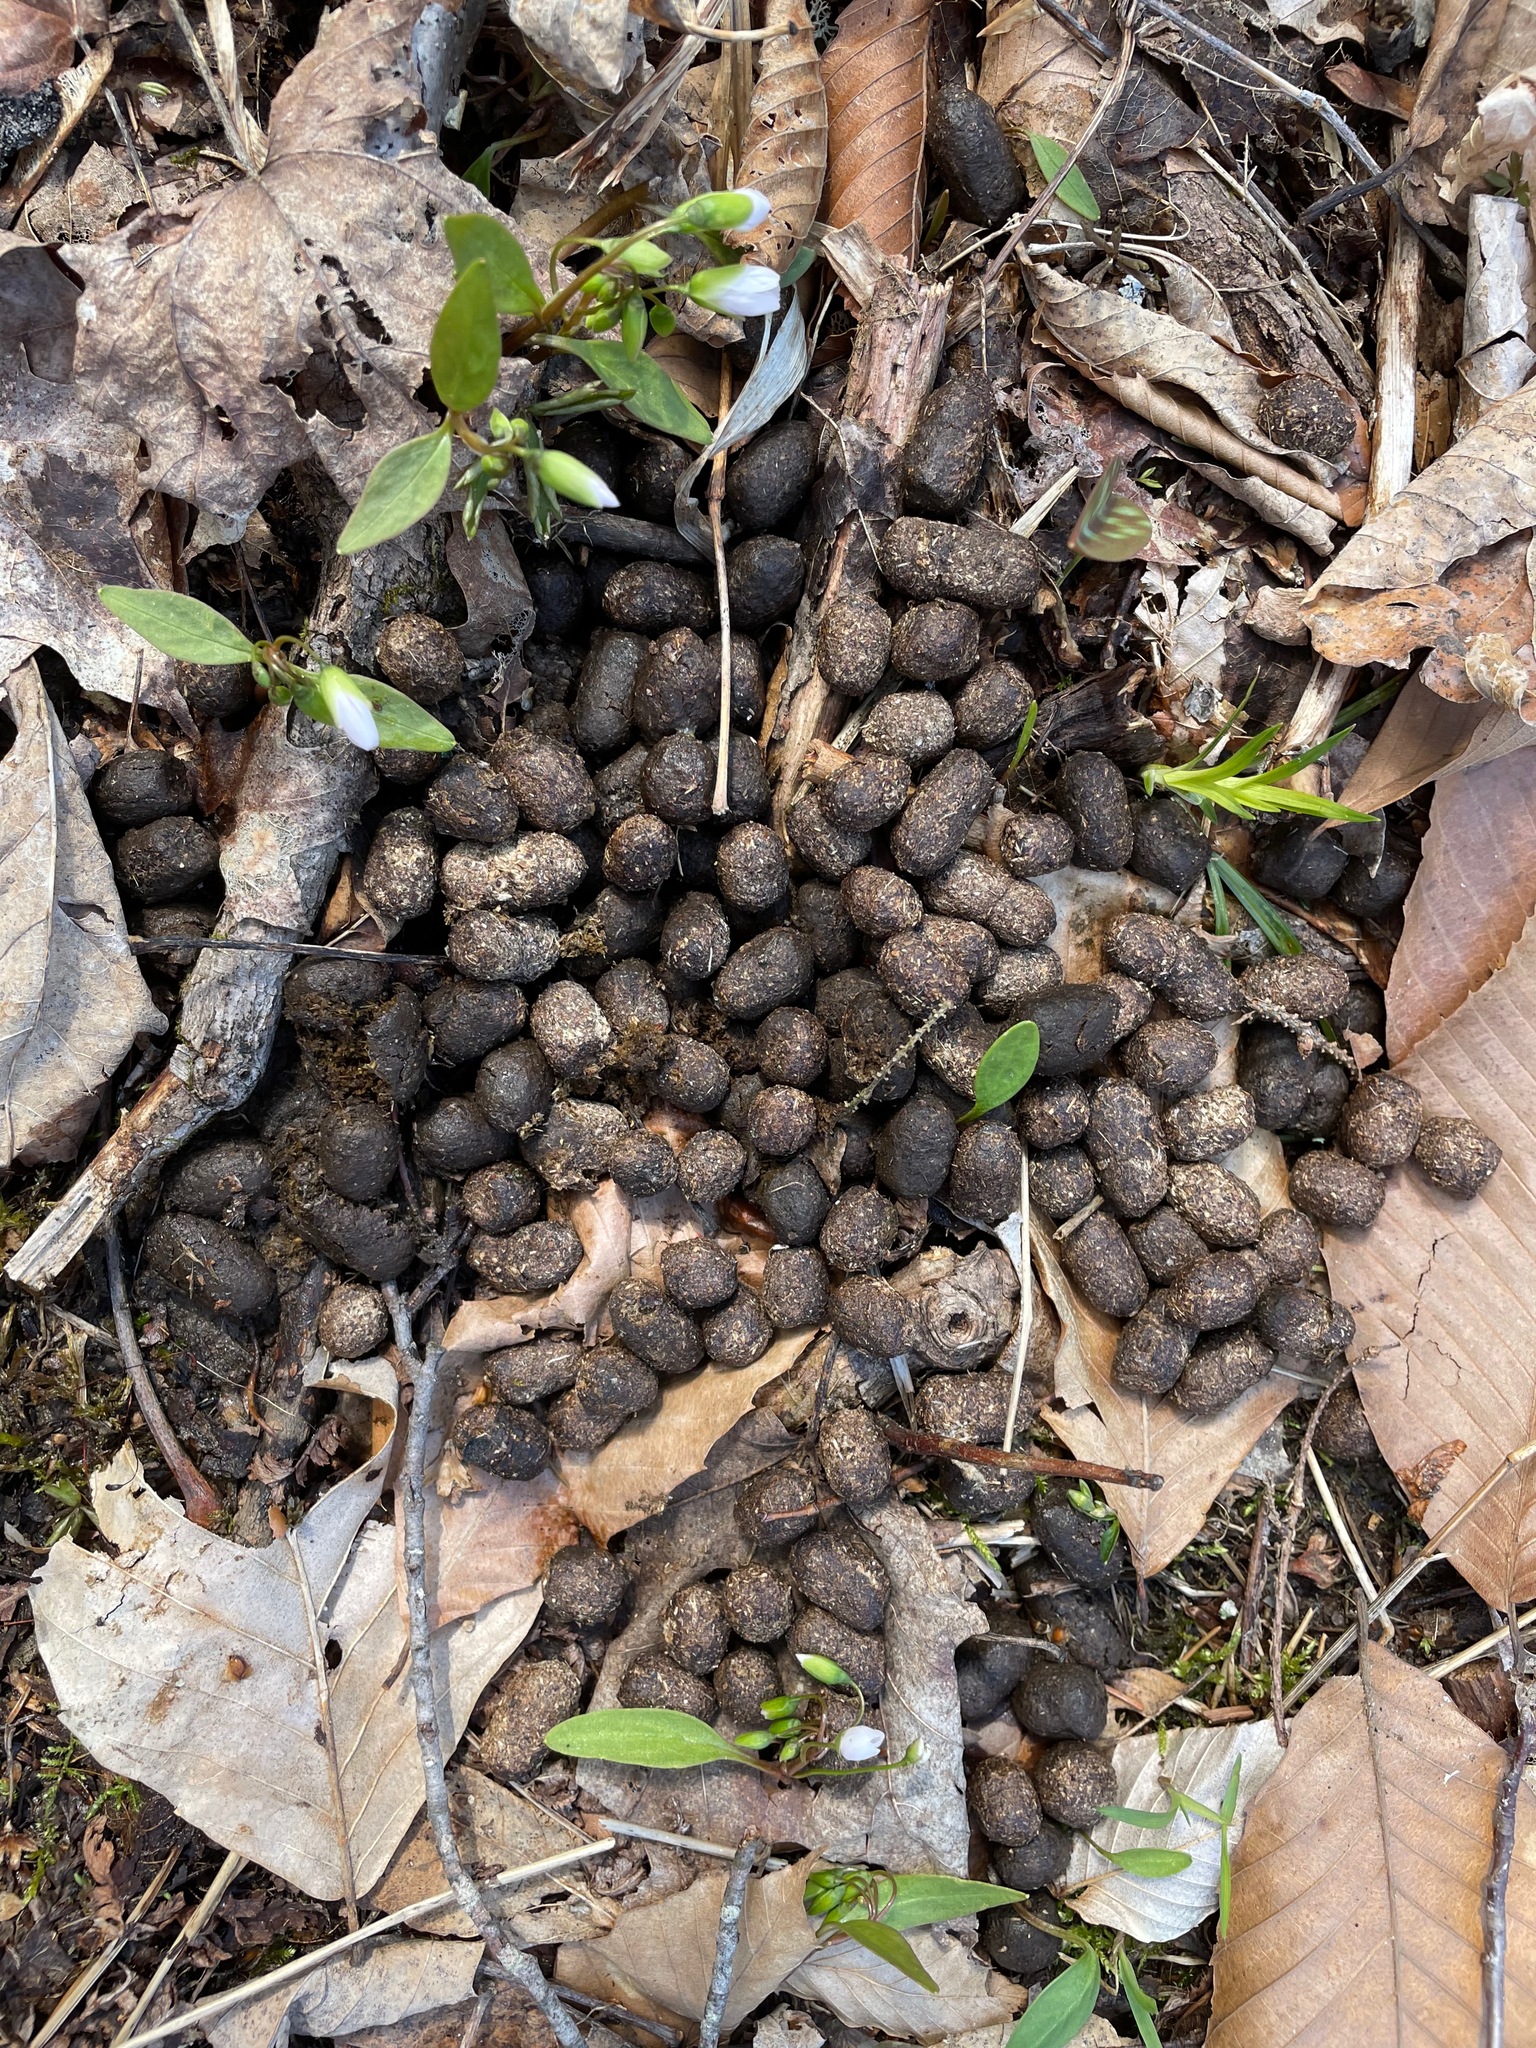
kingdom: Animalia
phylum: Chordata
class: Mammalia
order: Artiodactyla
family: Cervidae
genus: Odocoileus
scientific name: Odocoileus virginianus
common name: White-tailed deer
